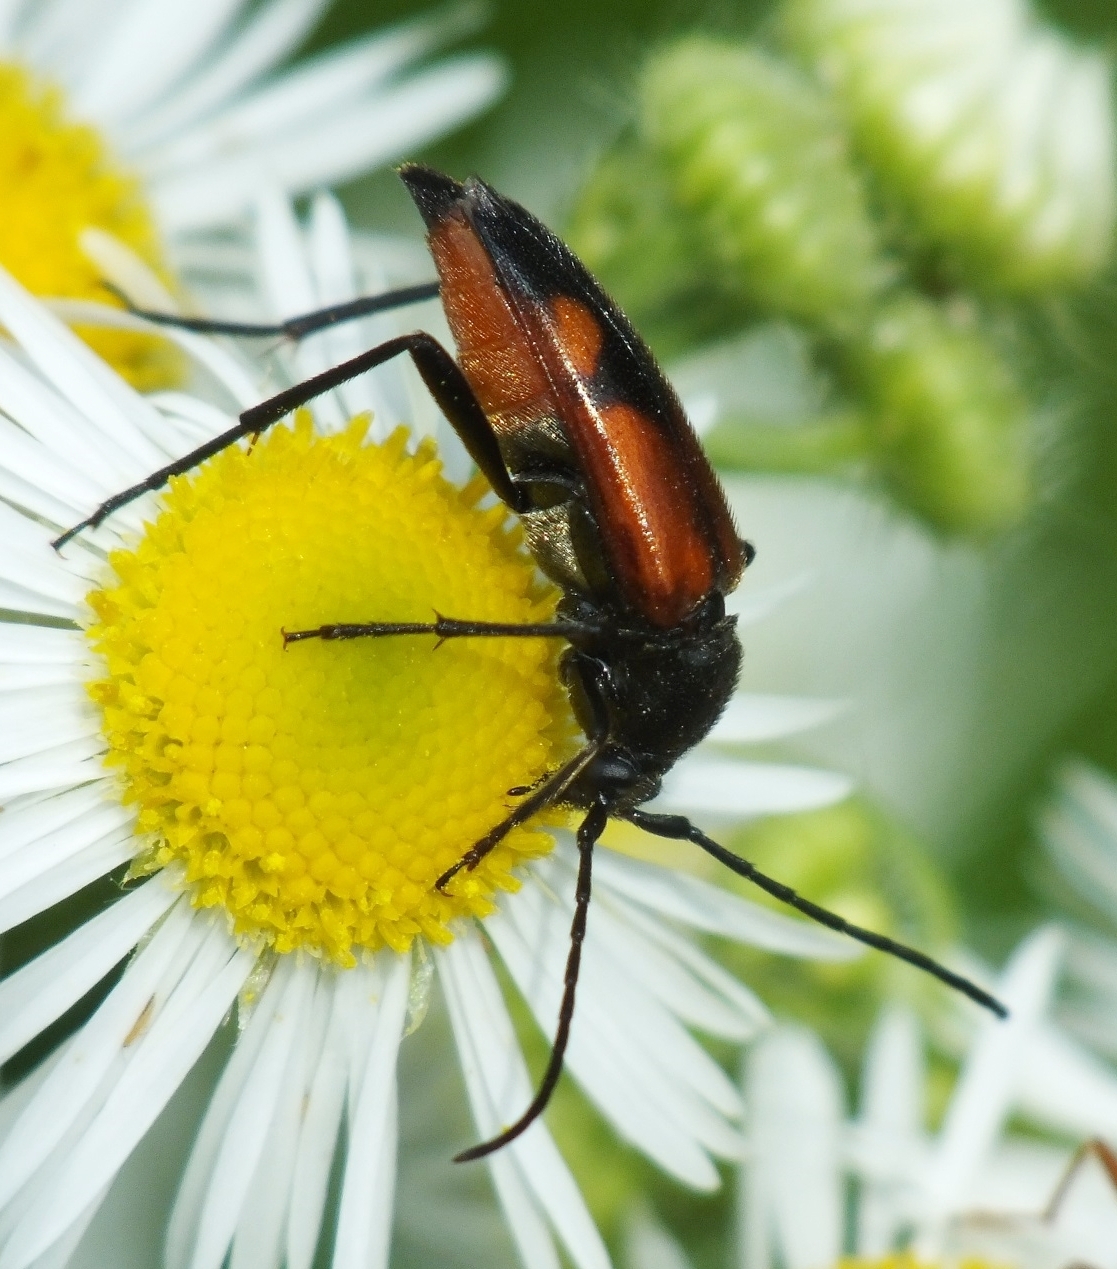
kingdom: Animalia
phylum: Arthropoda
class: Insecta
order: Coleoptera
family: Cerambycidae
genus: Stenurella
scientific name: Stenurella bifasciata
